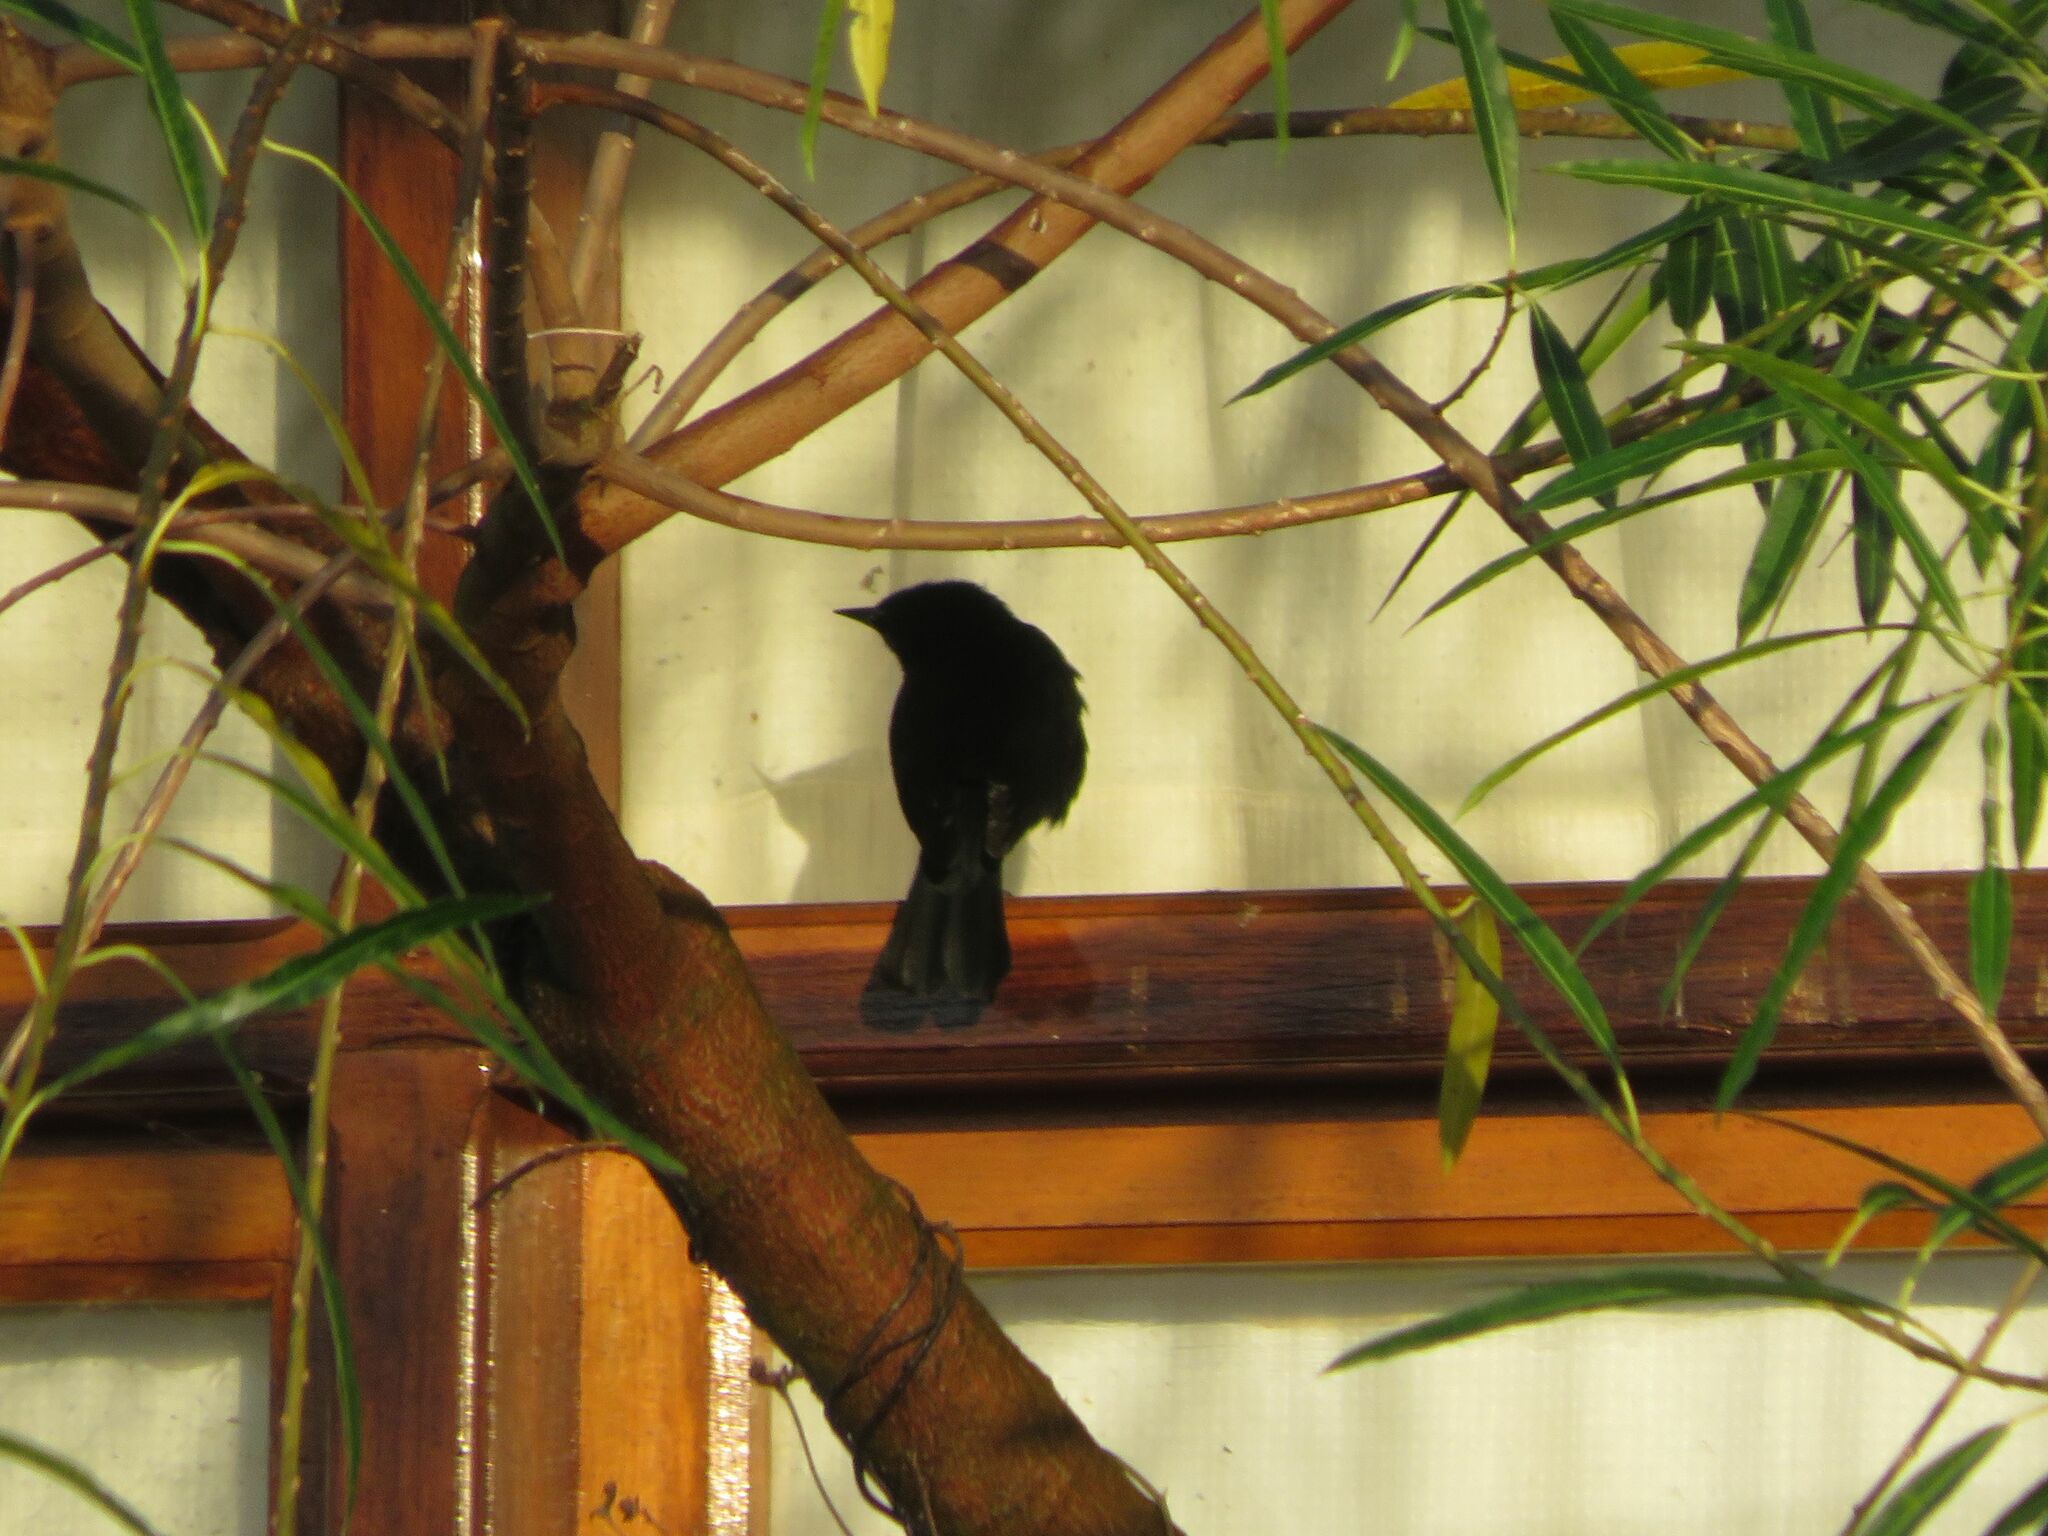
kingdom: Animalia
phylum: Chordata
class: Aves
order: Passeriformes
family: Icteridae
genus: Icterus
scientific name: Icterus cayanensis
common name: Epaulet oriole
